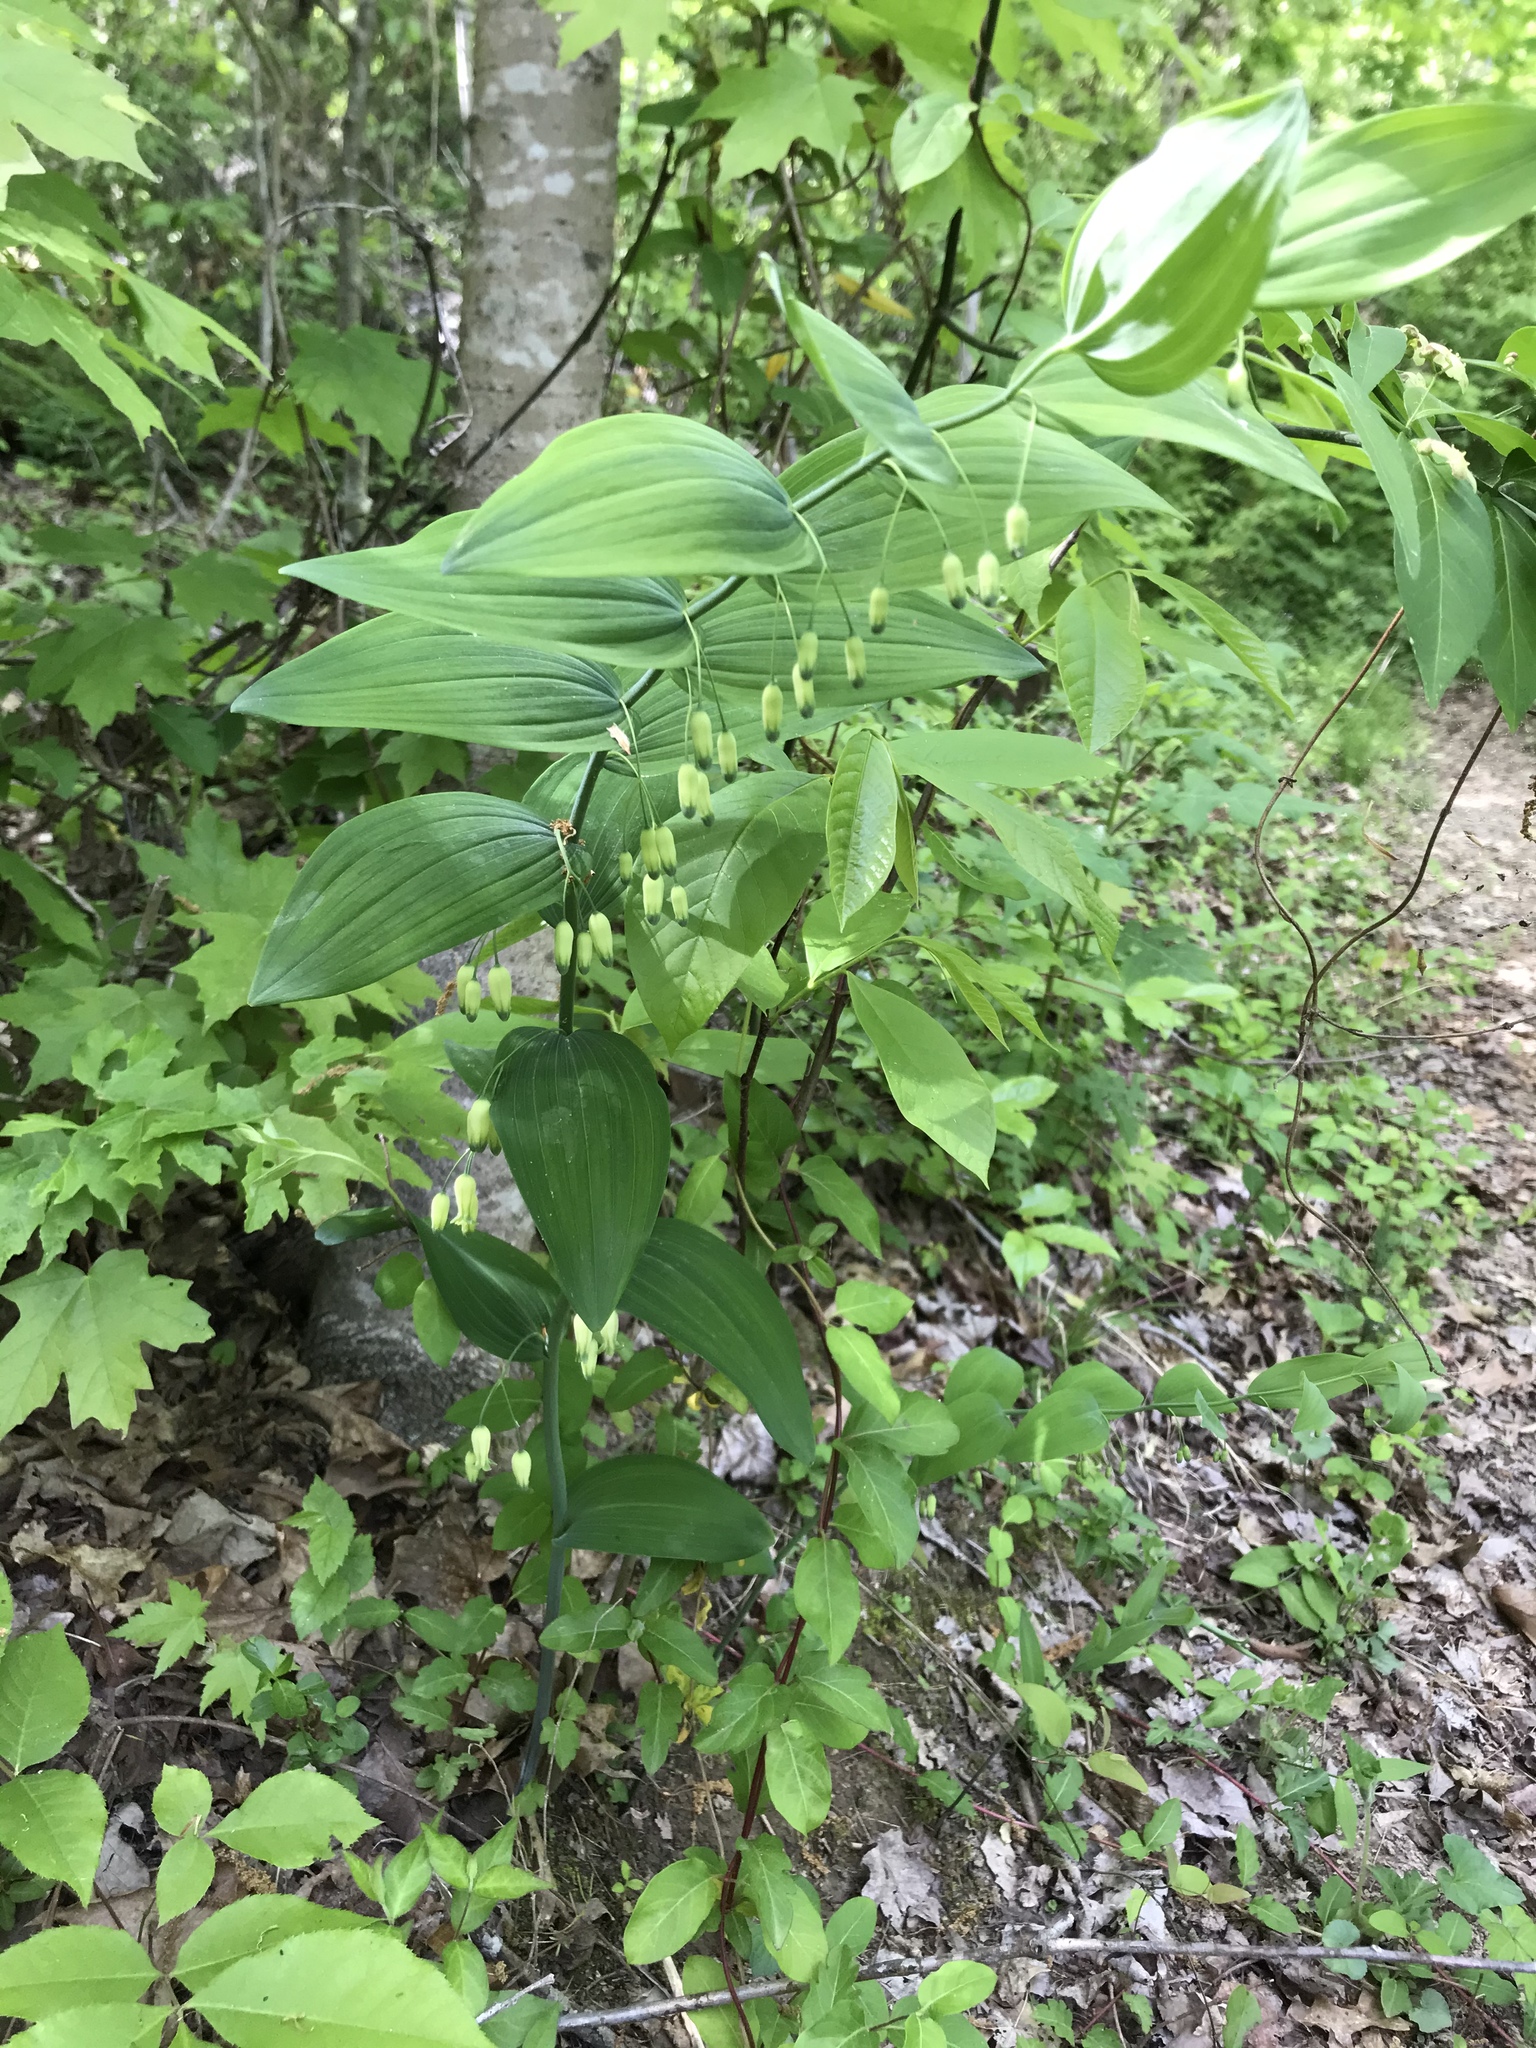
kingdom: Plantae
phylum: Tracheophyta
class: Liliopsida
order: Asparagales
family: Asparagaceae
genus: Polygonatum
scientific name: Polygonatum biflorum
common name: American solomon's-seal
